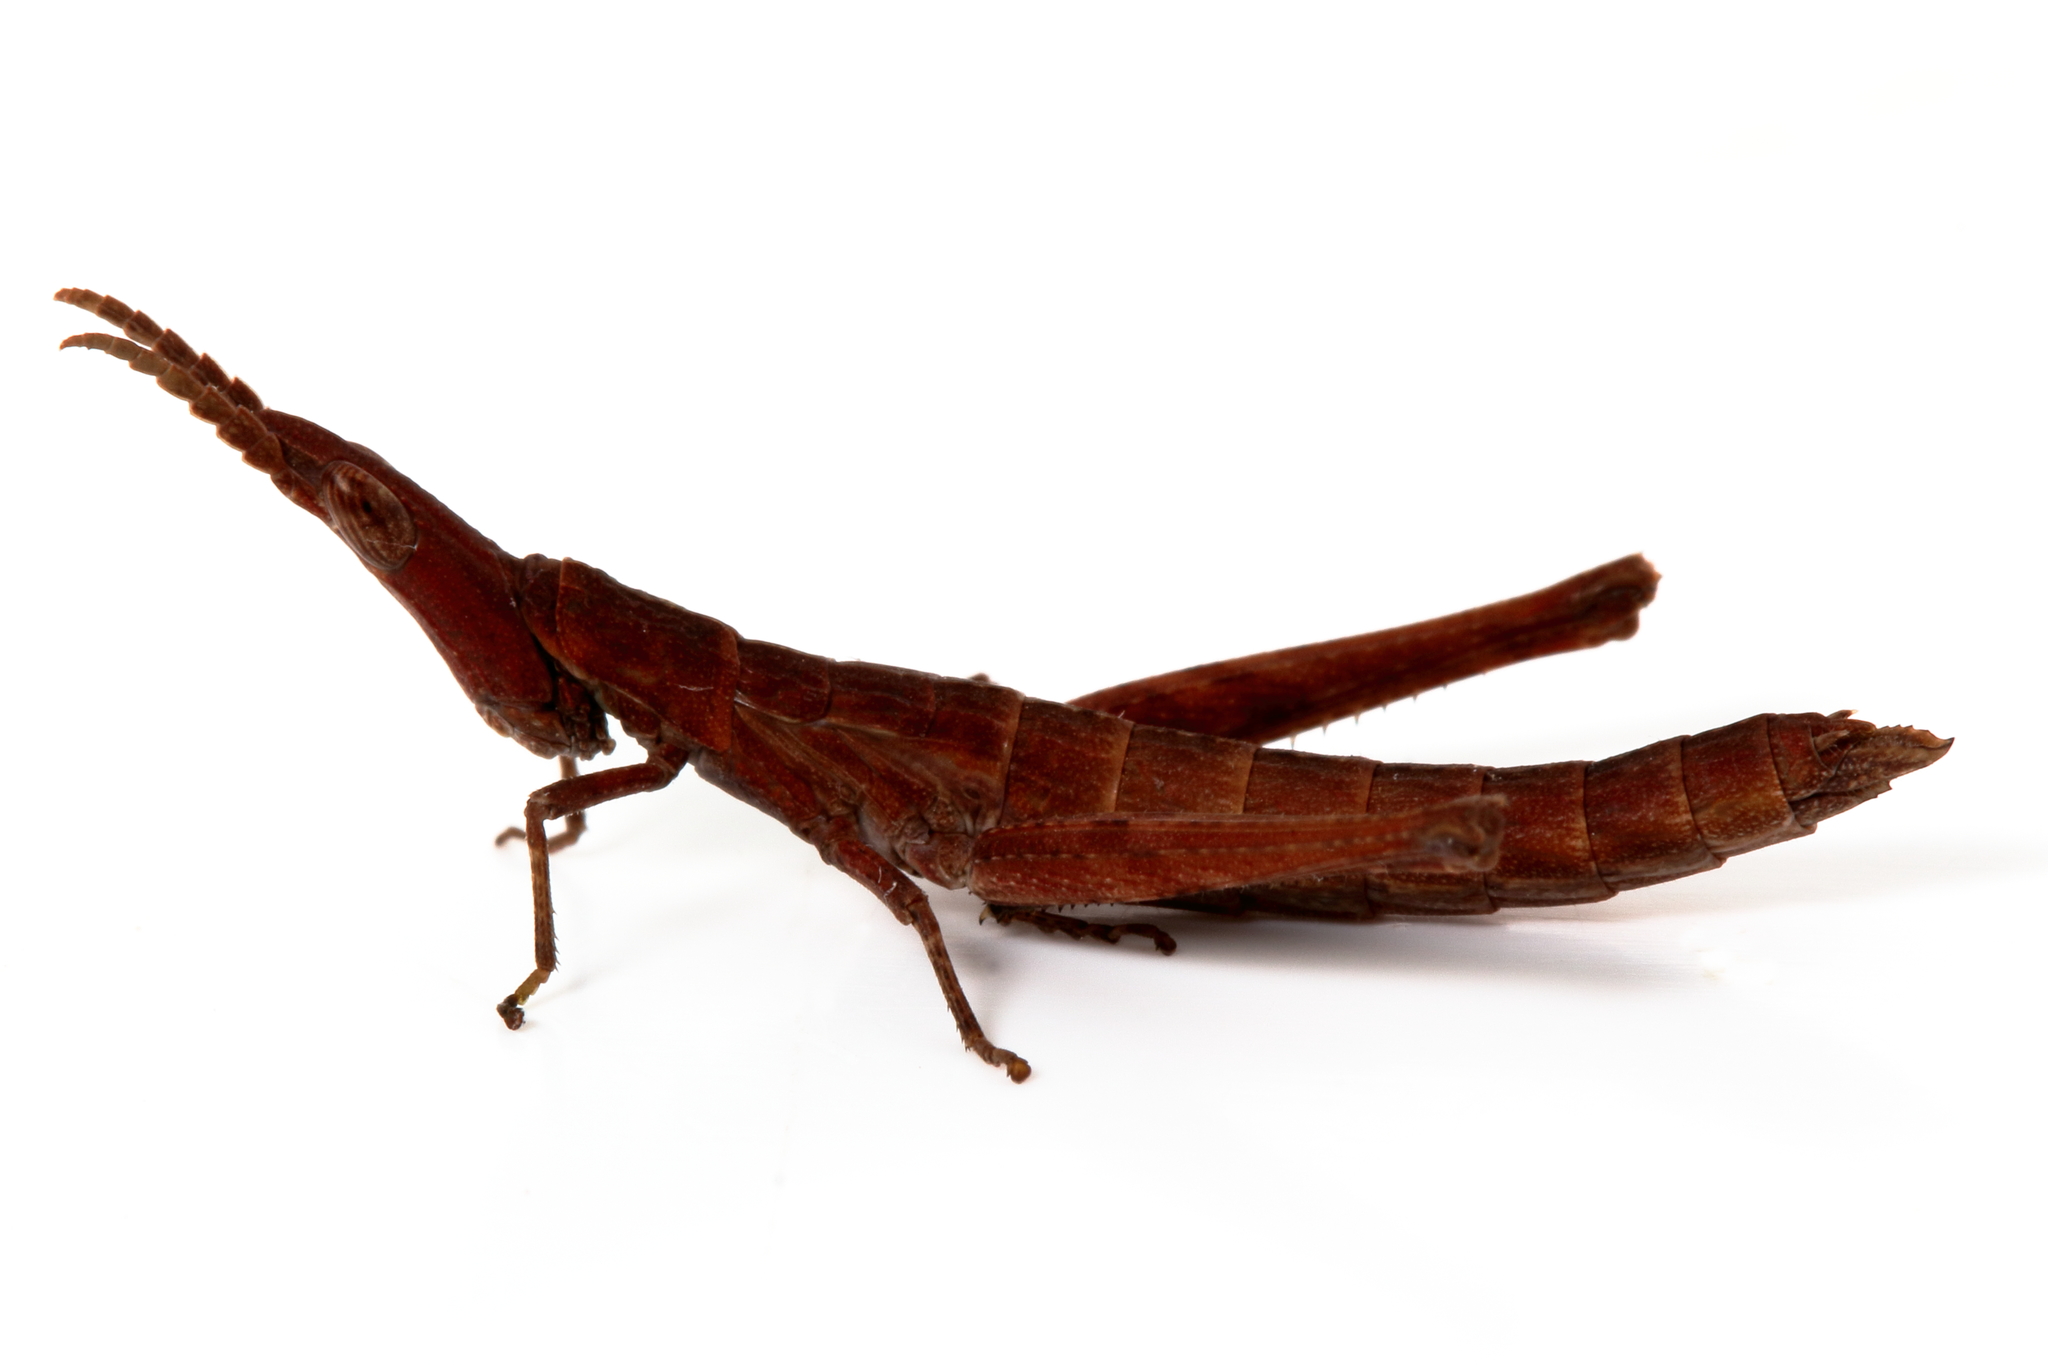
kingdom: Animalia
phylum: Arthropoda
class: Insecta
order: Orthoptera
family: Morabidae
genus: Vandiemenella
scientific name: Vandiemenella viatica
